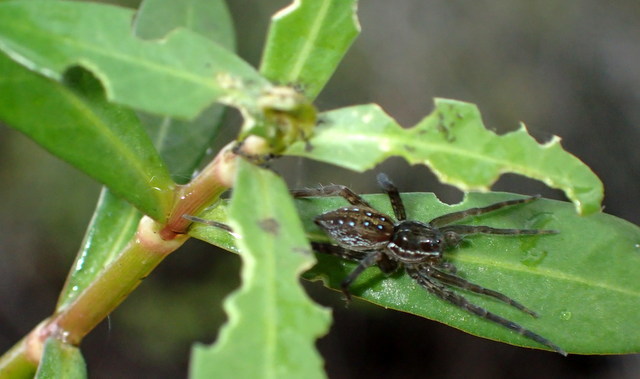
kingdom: Animalia
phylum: Arthropoda
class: Arachnida
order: Araneae
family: Pisauridae
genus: Dolomedes
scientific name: Dolomedes triton
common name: Six-spotted fishing spider
